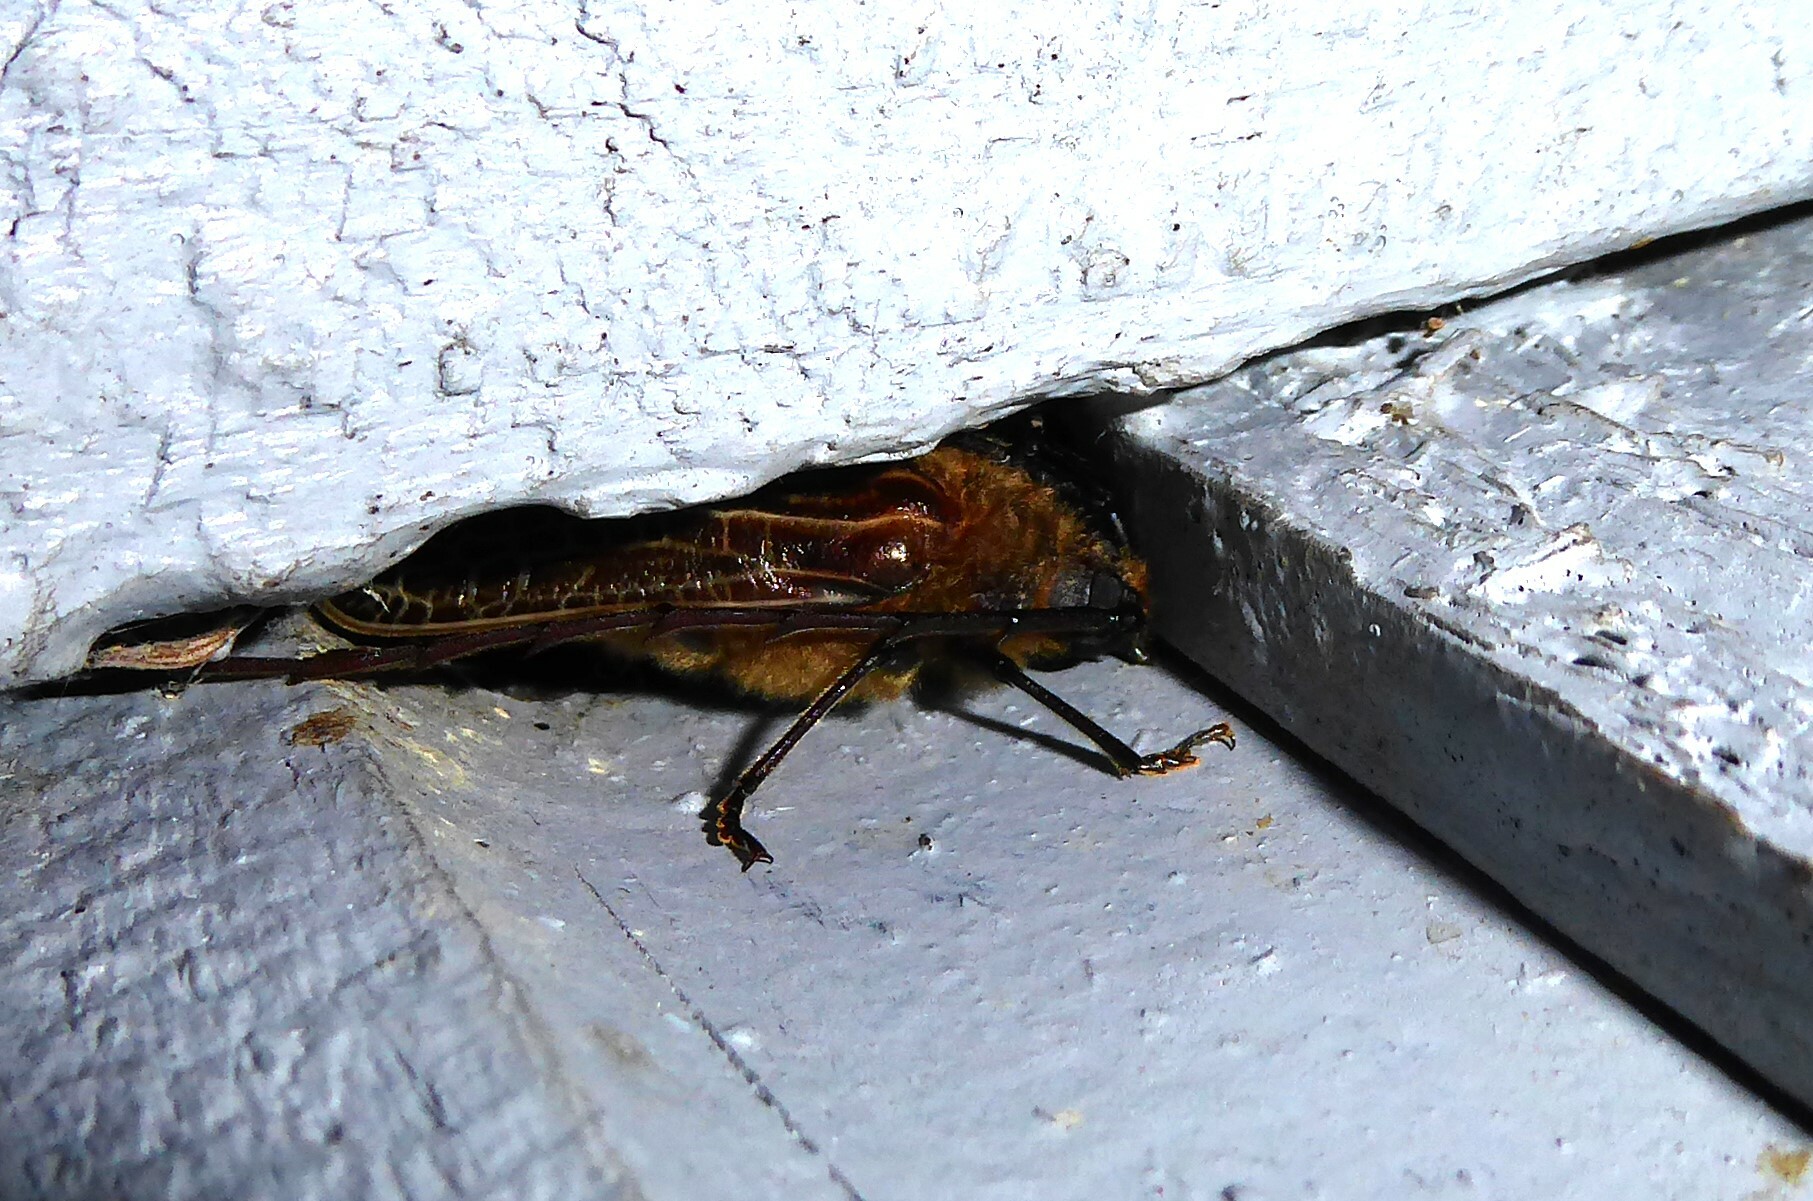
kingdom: Animalia
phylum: Arthropoda
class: Insecta
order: Coleoptera
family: Cerambycidae
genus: Prionoplus
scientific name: Prionoplus reticularis
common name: Huhu beetle
